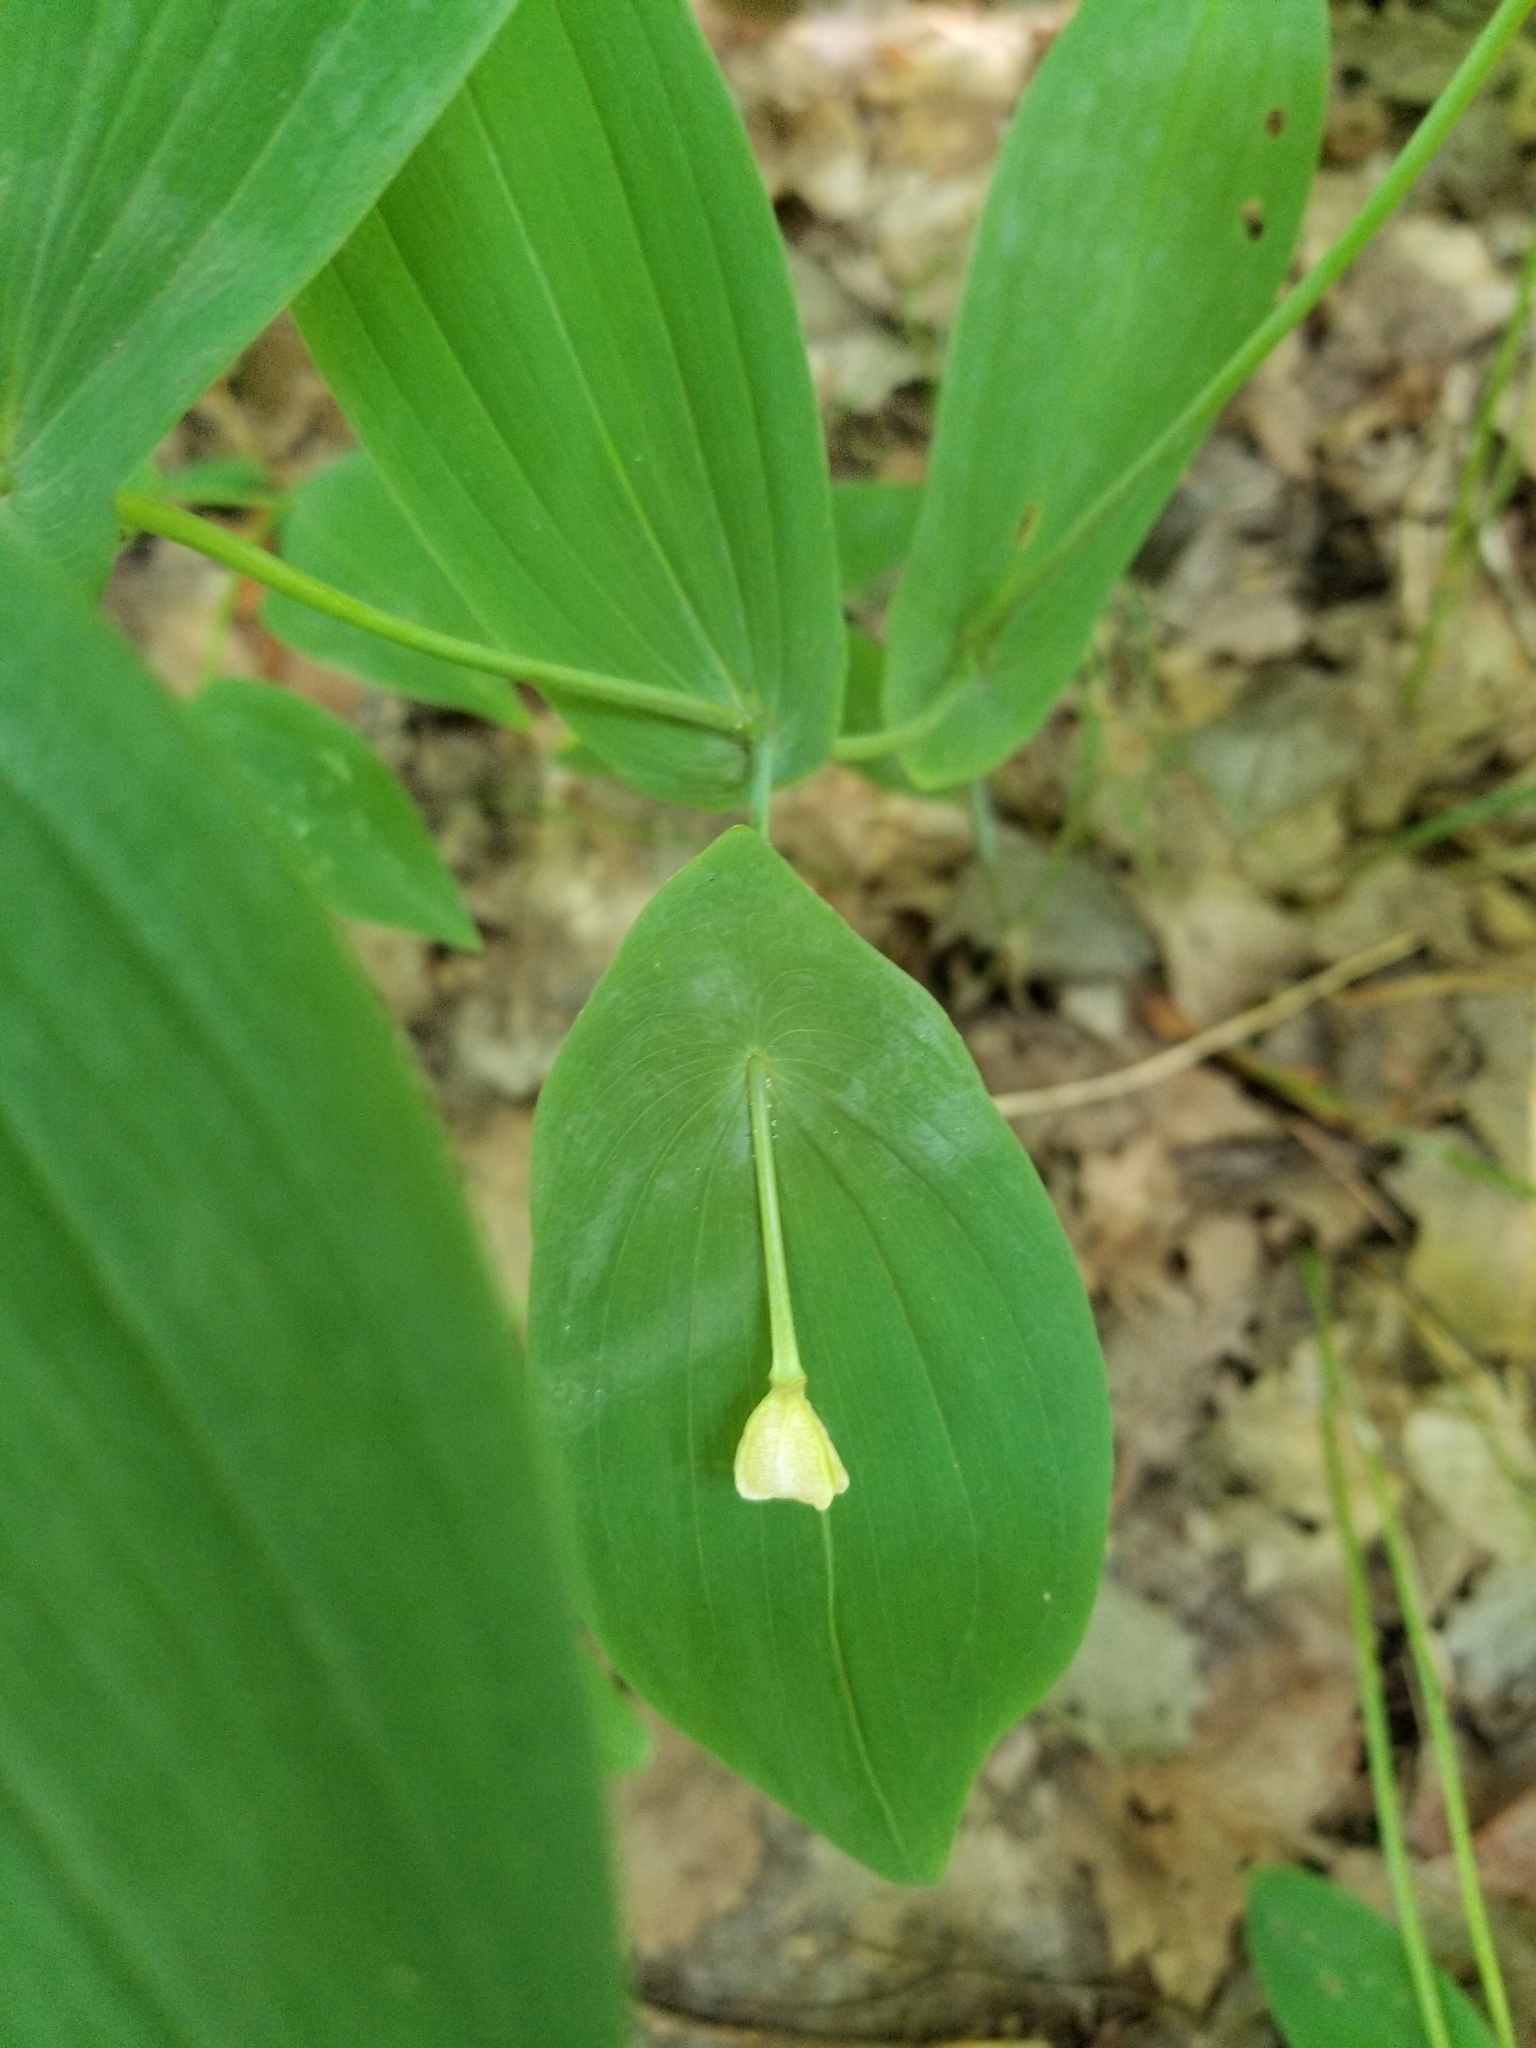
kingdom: Plantae
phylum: Tracheophyta
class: Liliopsida
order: Liliales
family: Colchicaceae
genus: Uvularia
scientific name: Uvularia grandiflora
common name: Bellwort
